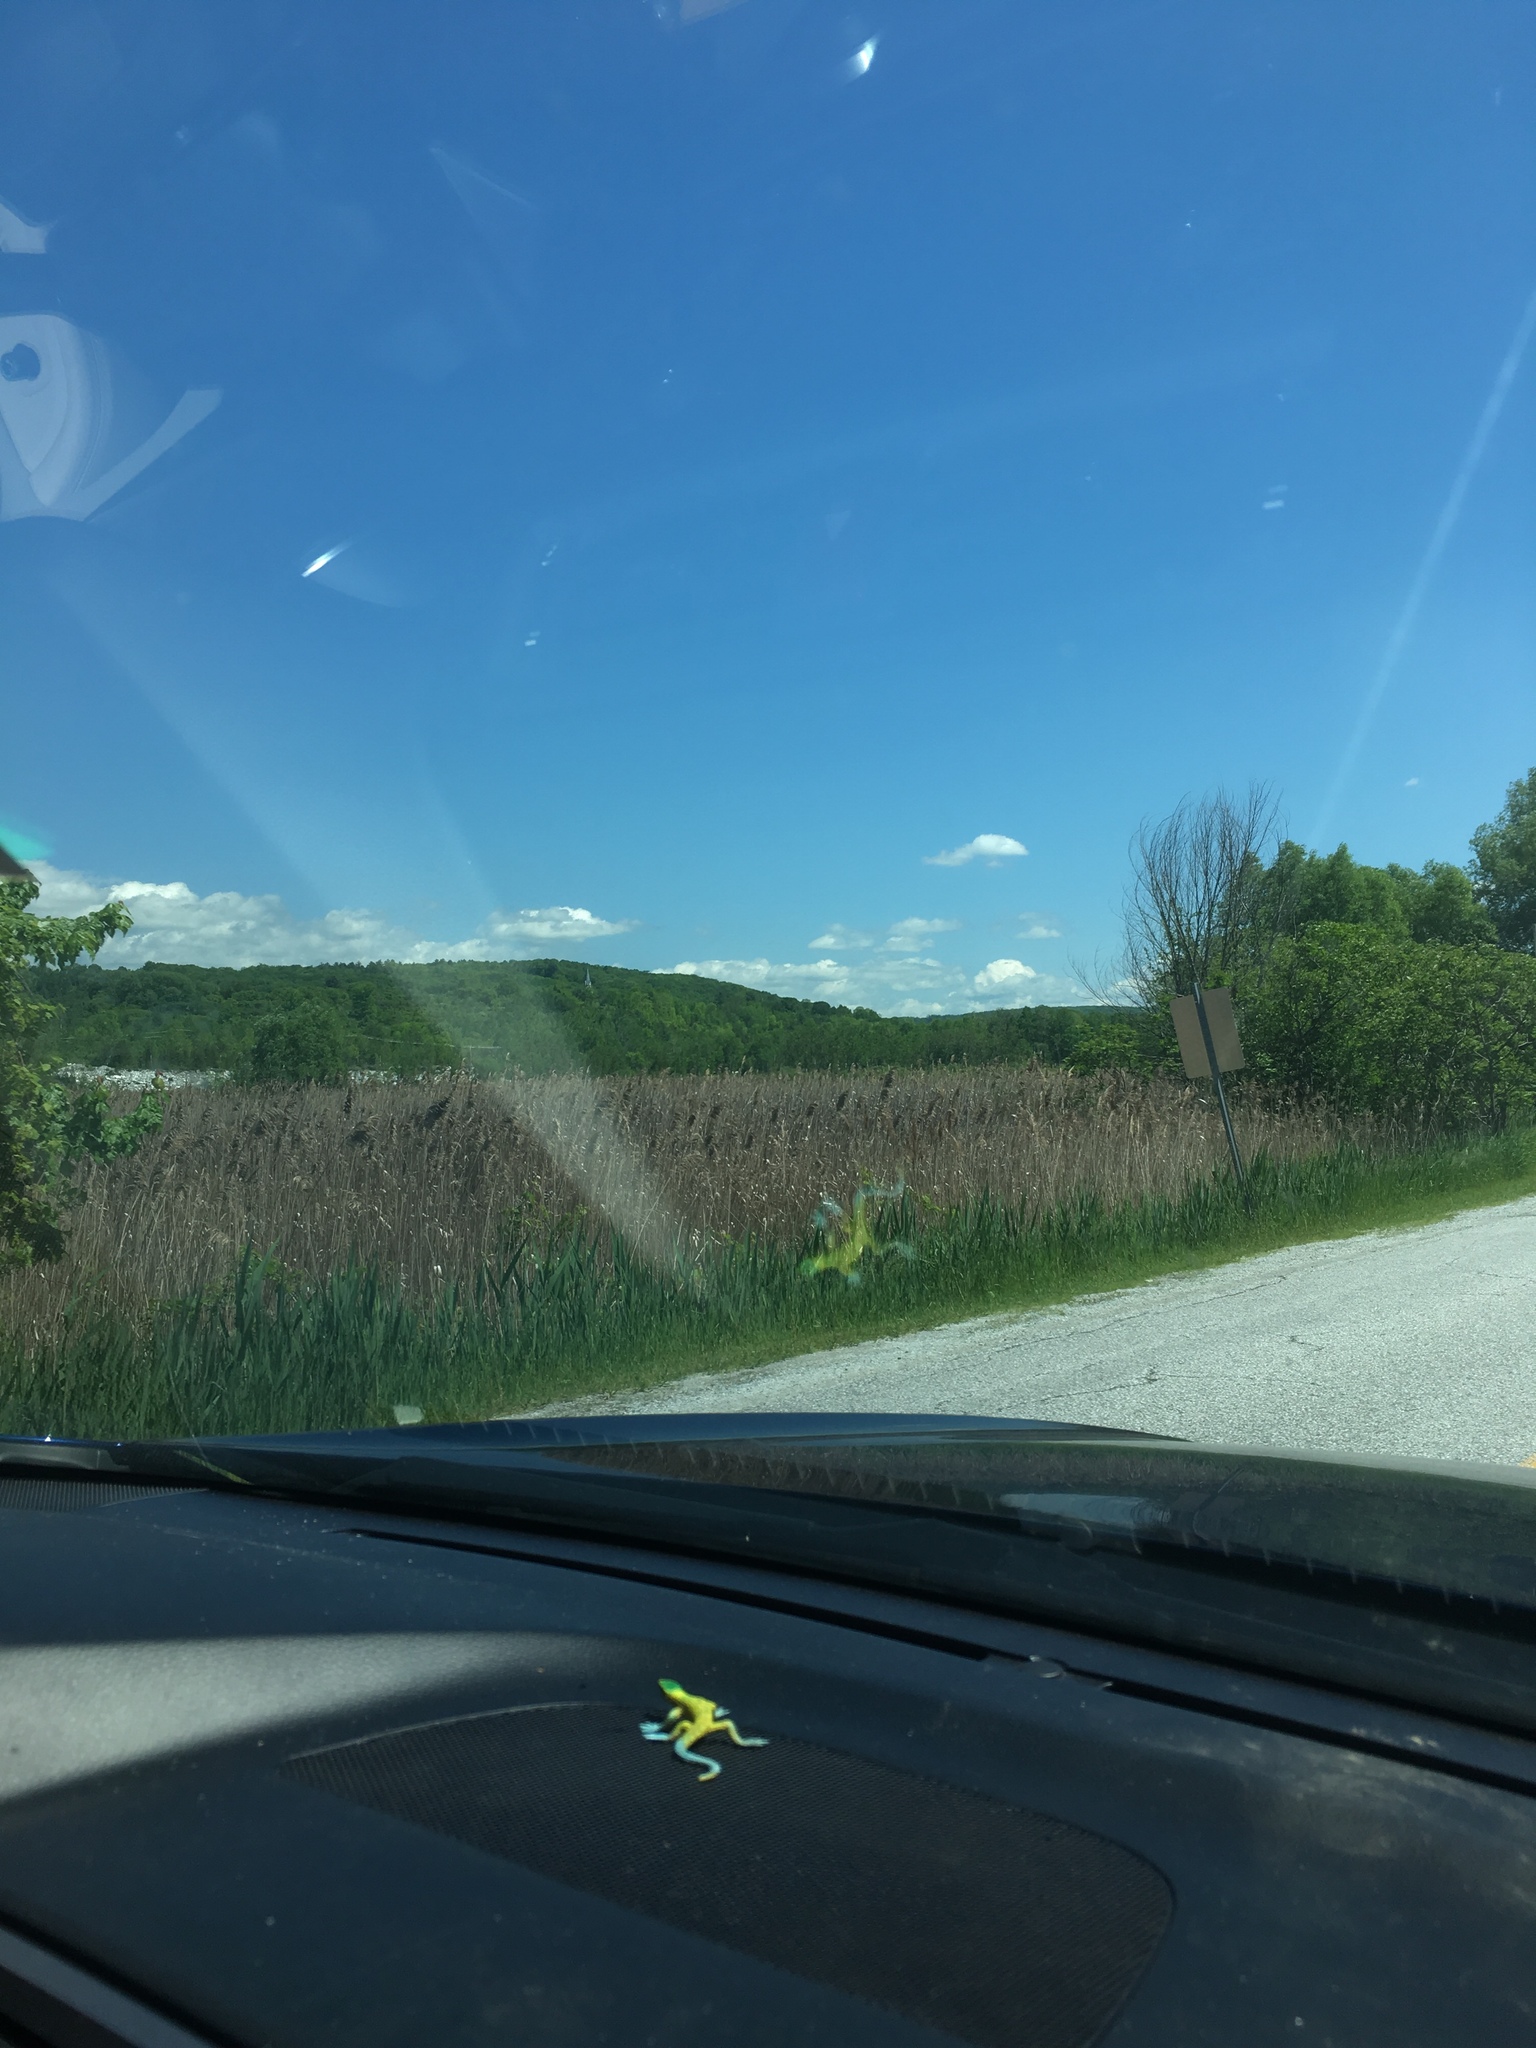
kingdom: Plantae
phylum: Tracheophyta
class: Liliopsida
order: Poales
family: Poaceae
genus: Phragmites
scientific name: Phragmites australis
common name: Common reed
